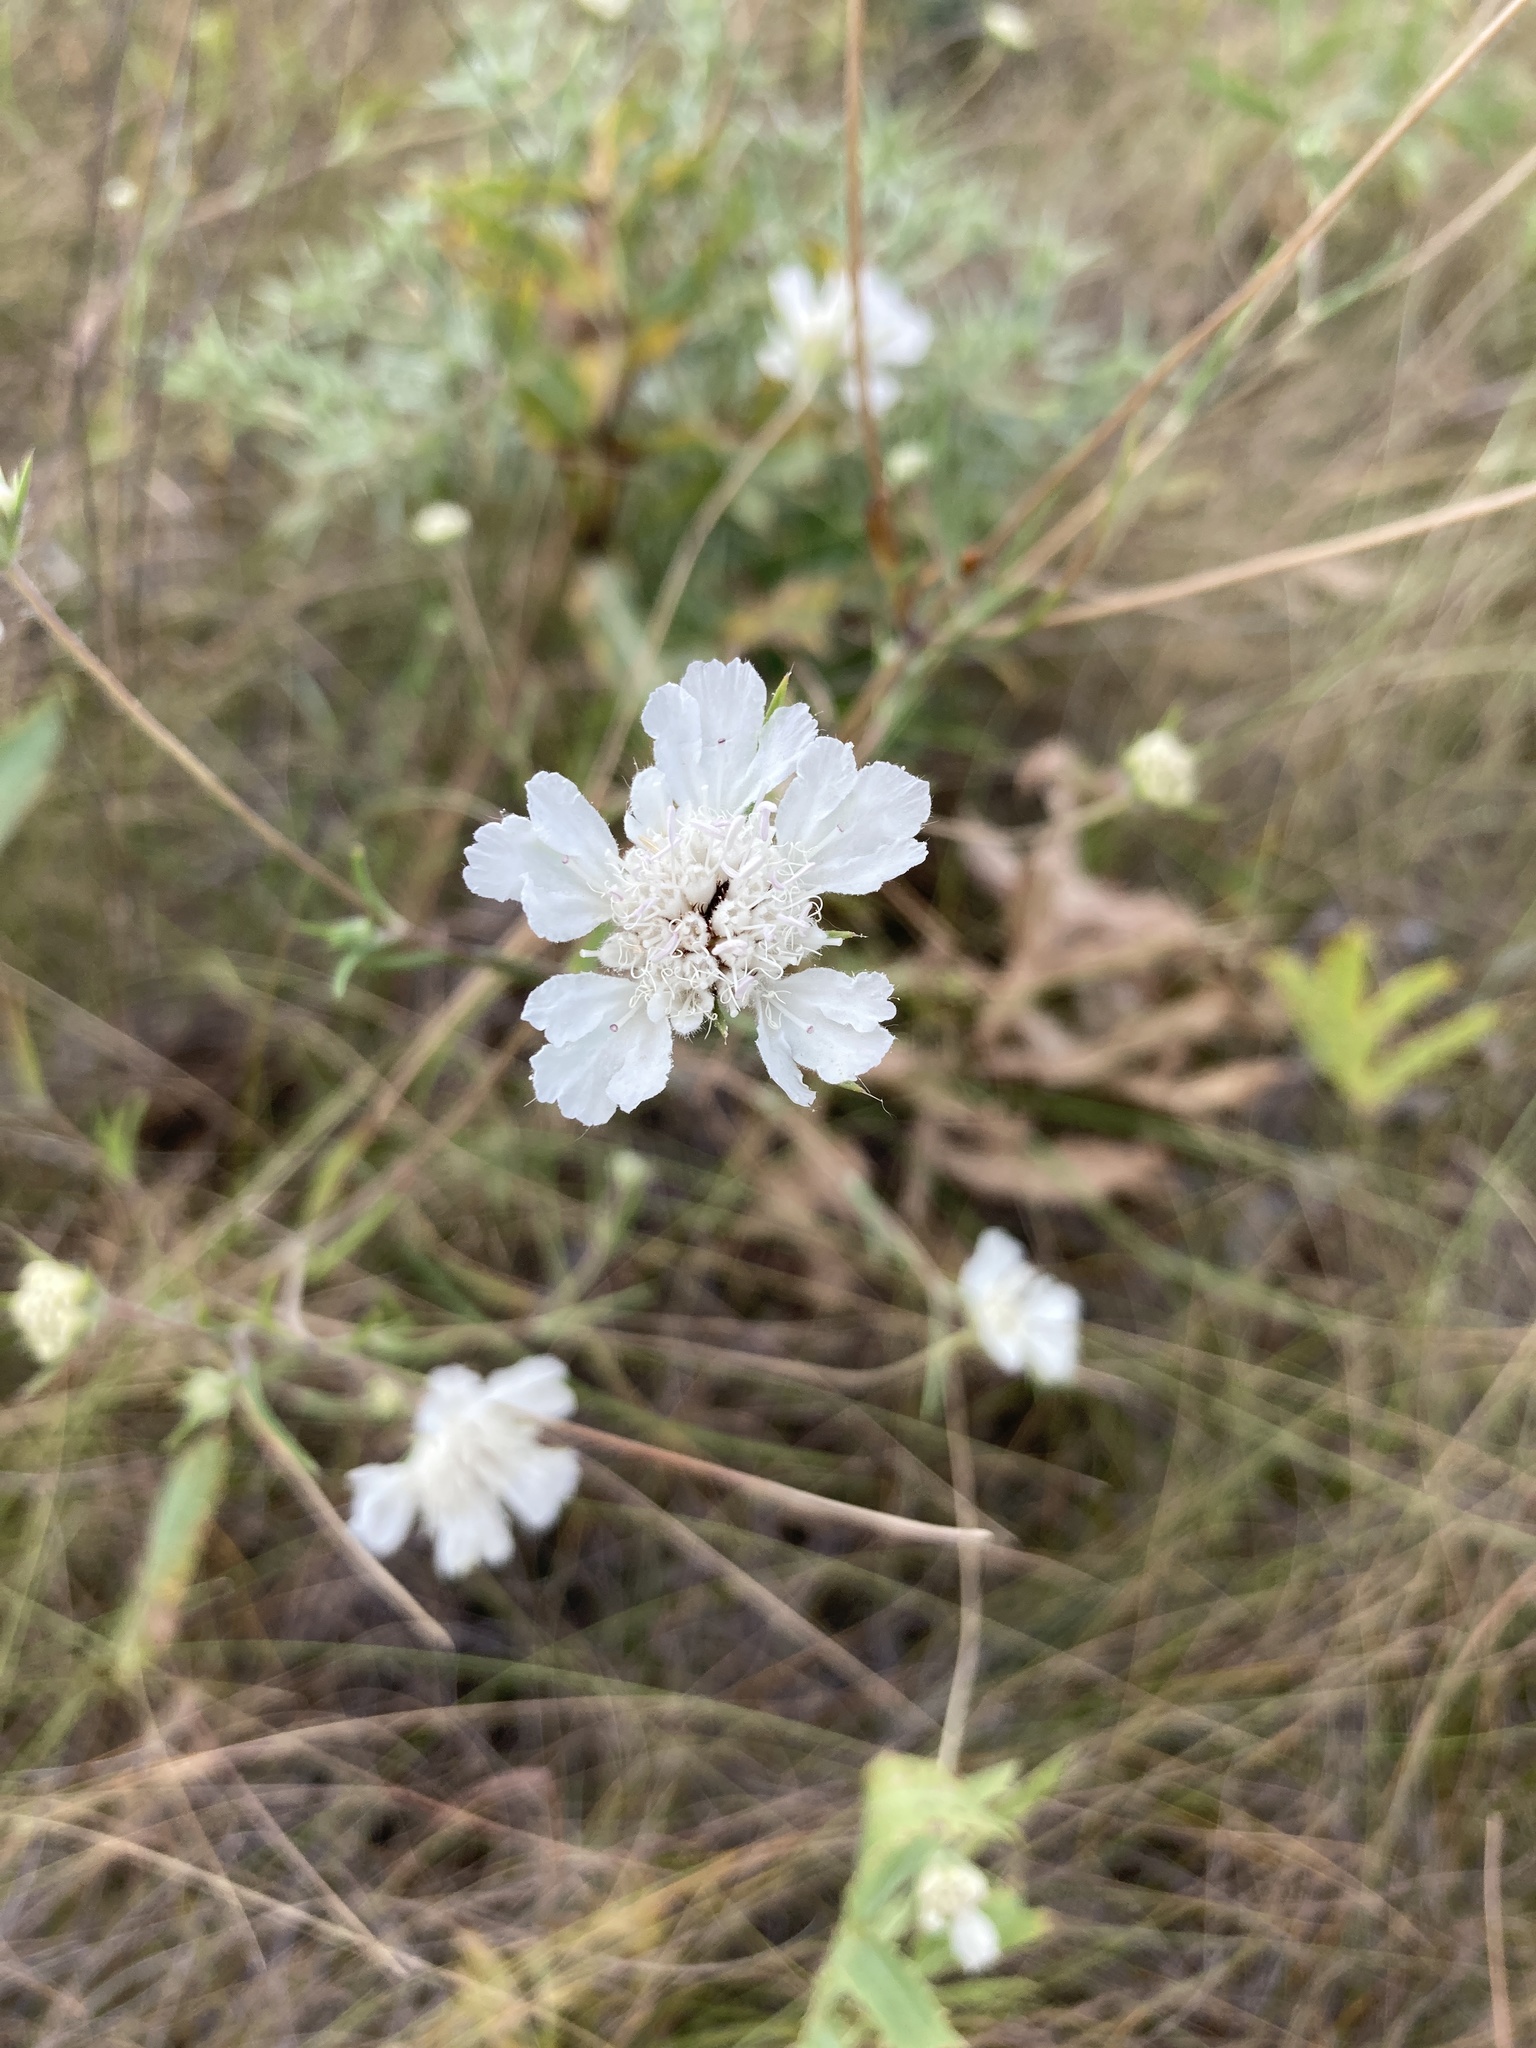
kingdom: Plantae
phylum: Tracheophyta
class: Magnoliopsida
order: Dipsacales
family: Caprifoliaceae
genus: Lomelosia
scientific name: Lomelosia argentea
